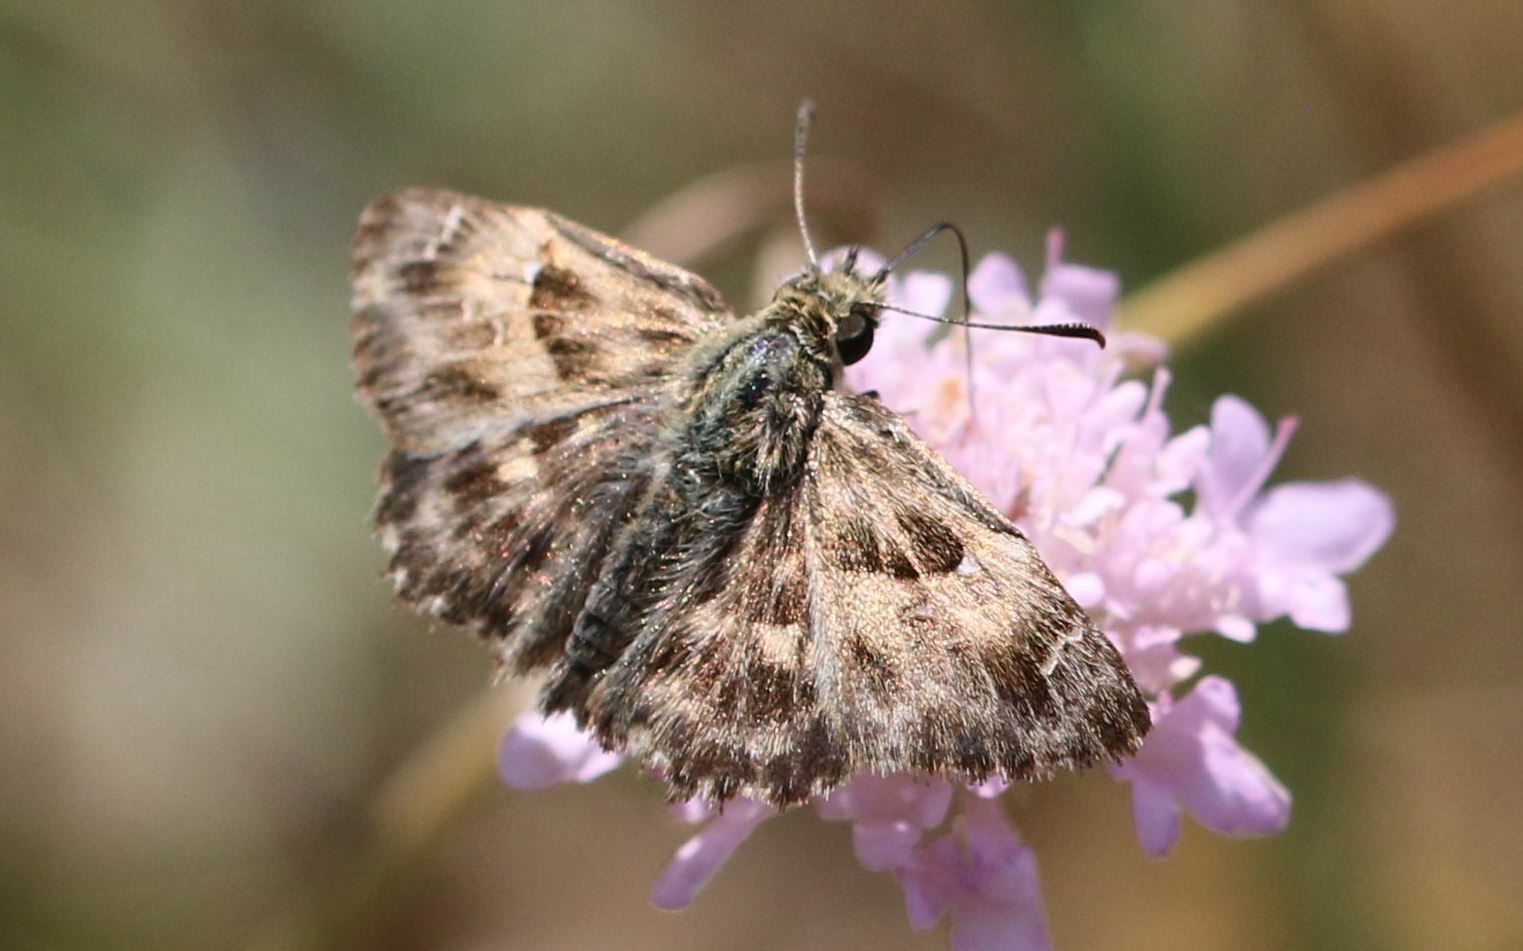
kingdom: Animalia
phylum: Arthropoda
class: Insecta
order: Lepidoptera
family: Hesperiidae
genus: Carcharodus
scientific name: Carcharodus alceae
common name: Mallow skipper
